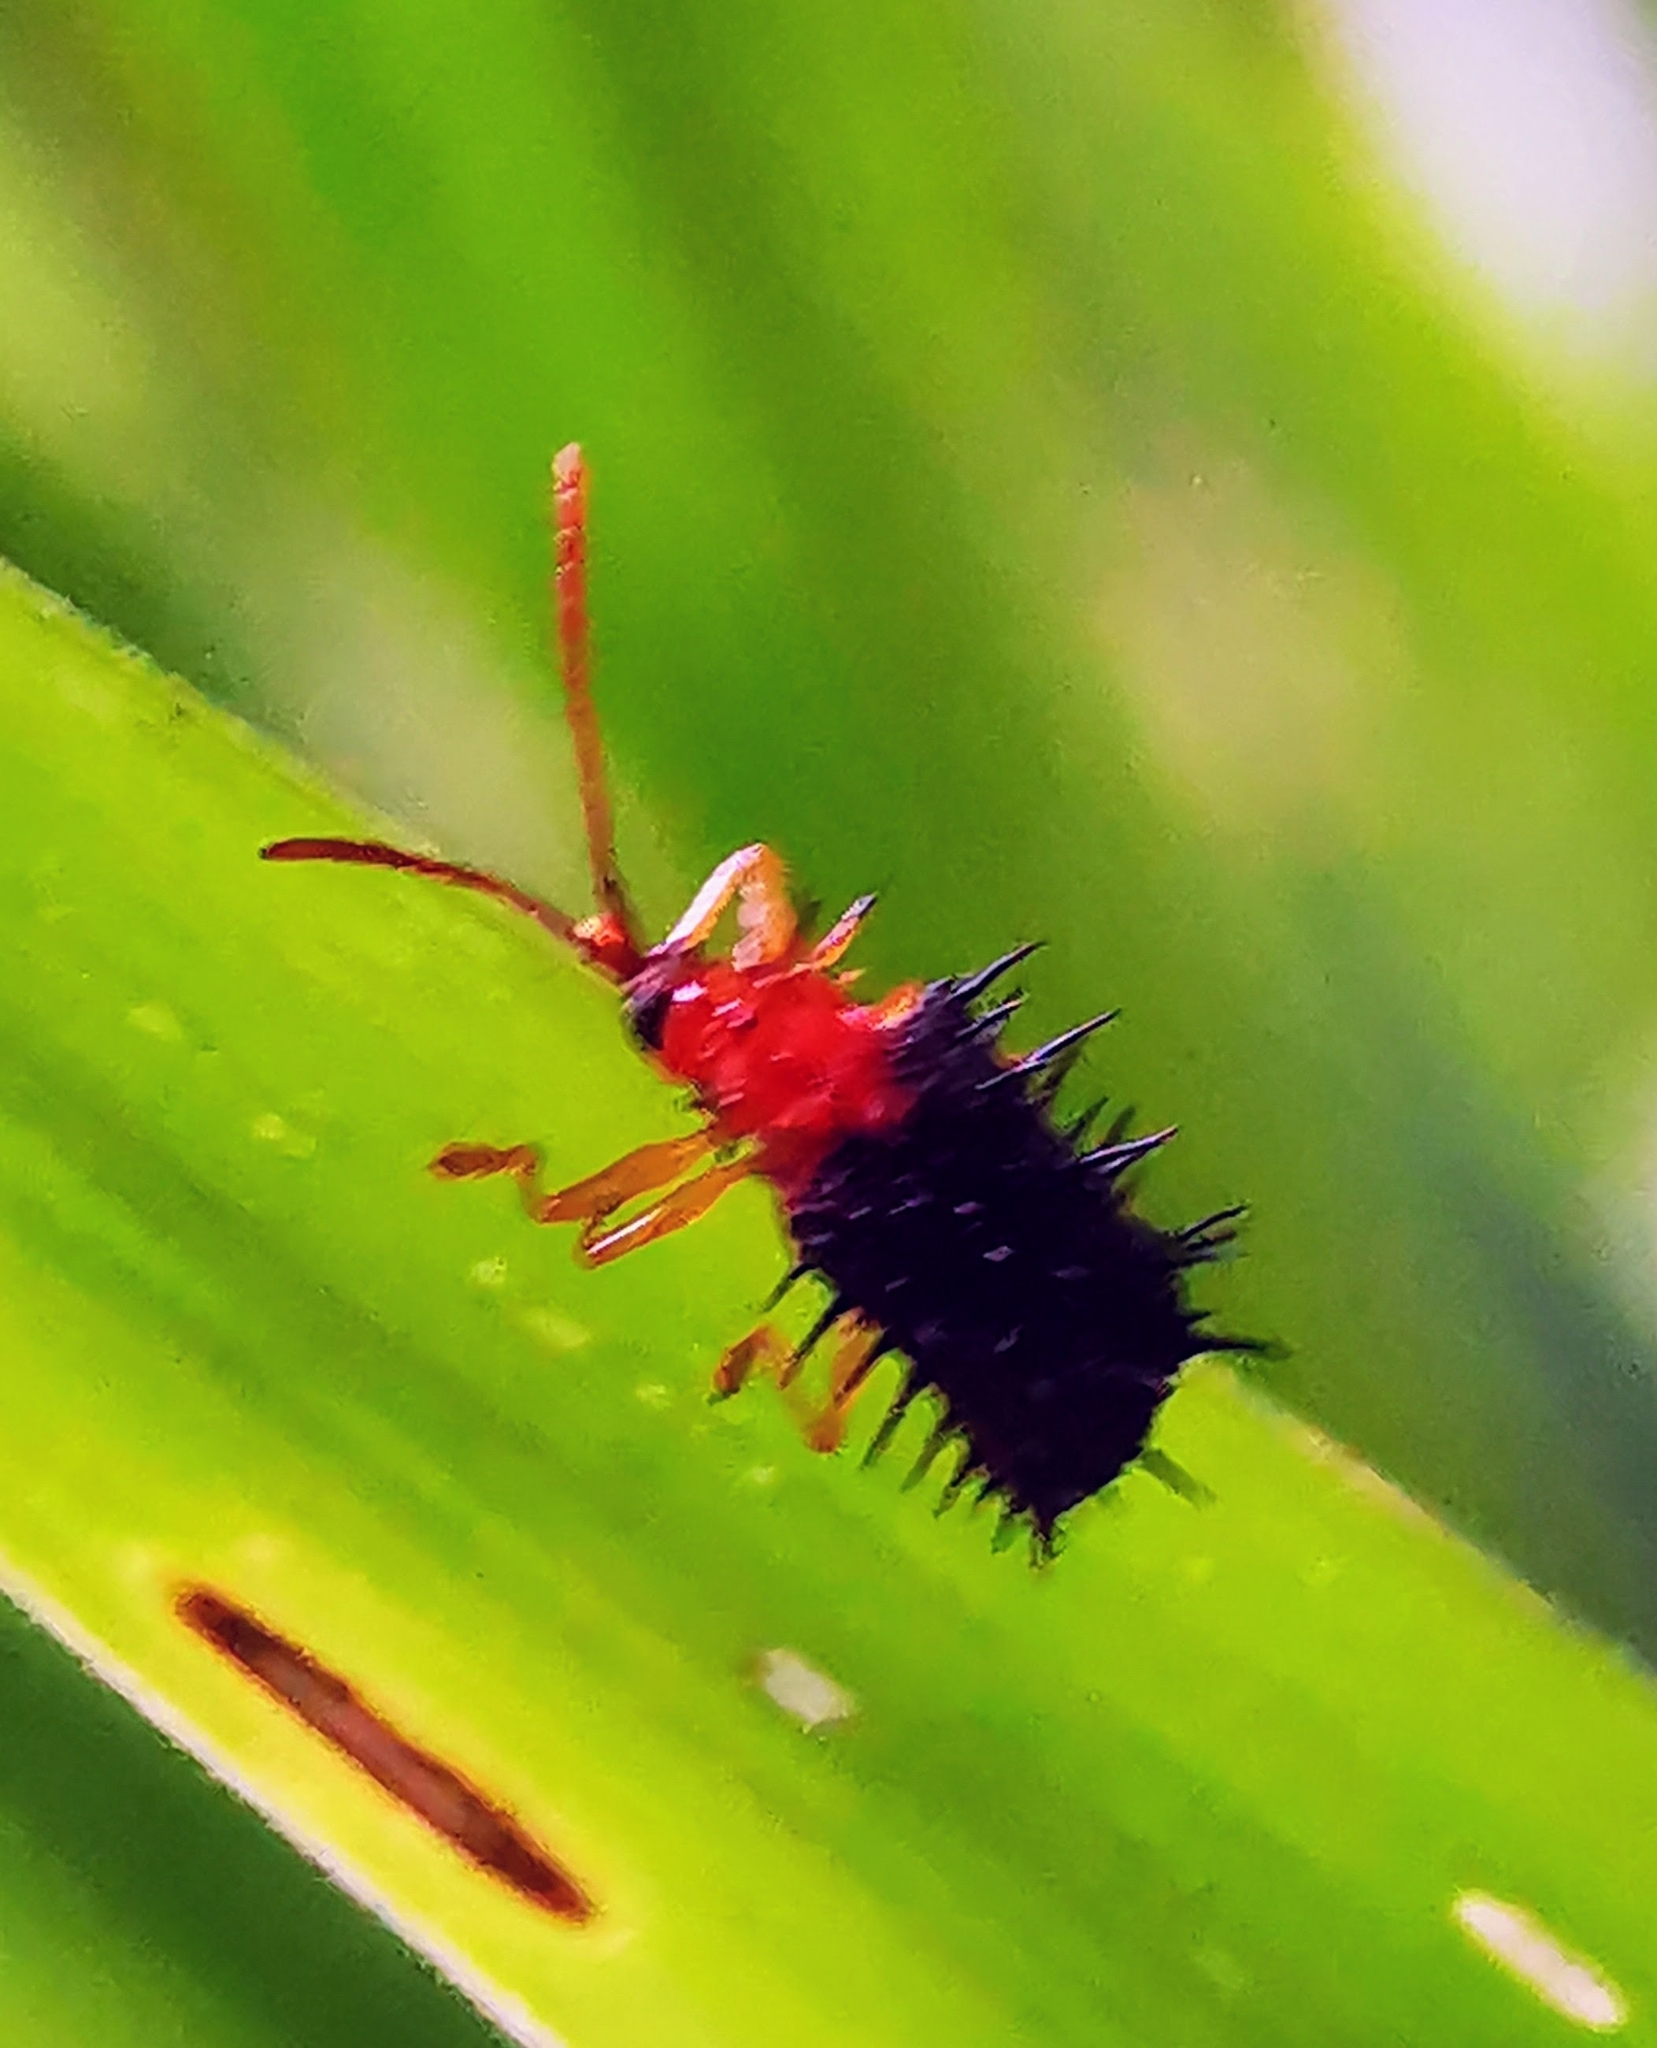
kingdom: Animalia
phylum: Arthropoda
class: Insecta
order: Coleoptera
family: Chrysomelidae
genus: Dactylispa
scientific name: Dactylispa bipartita
